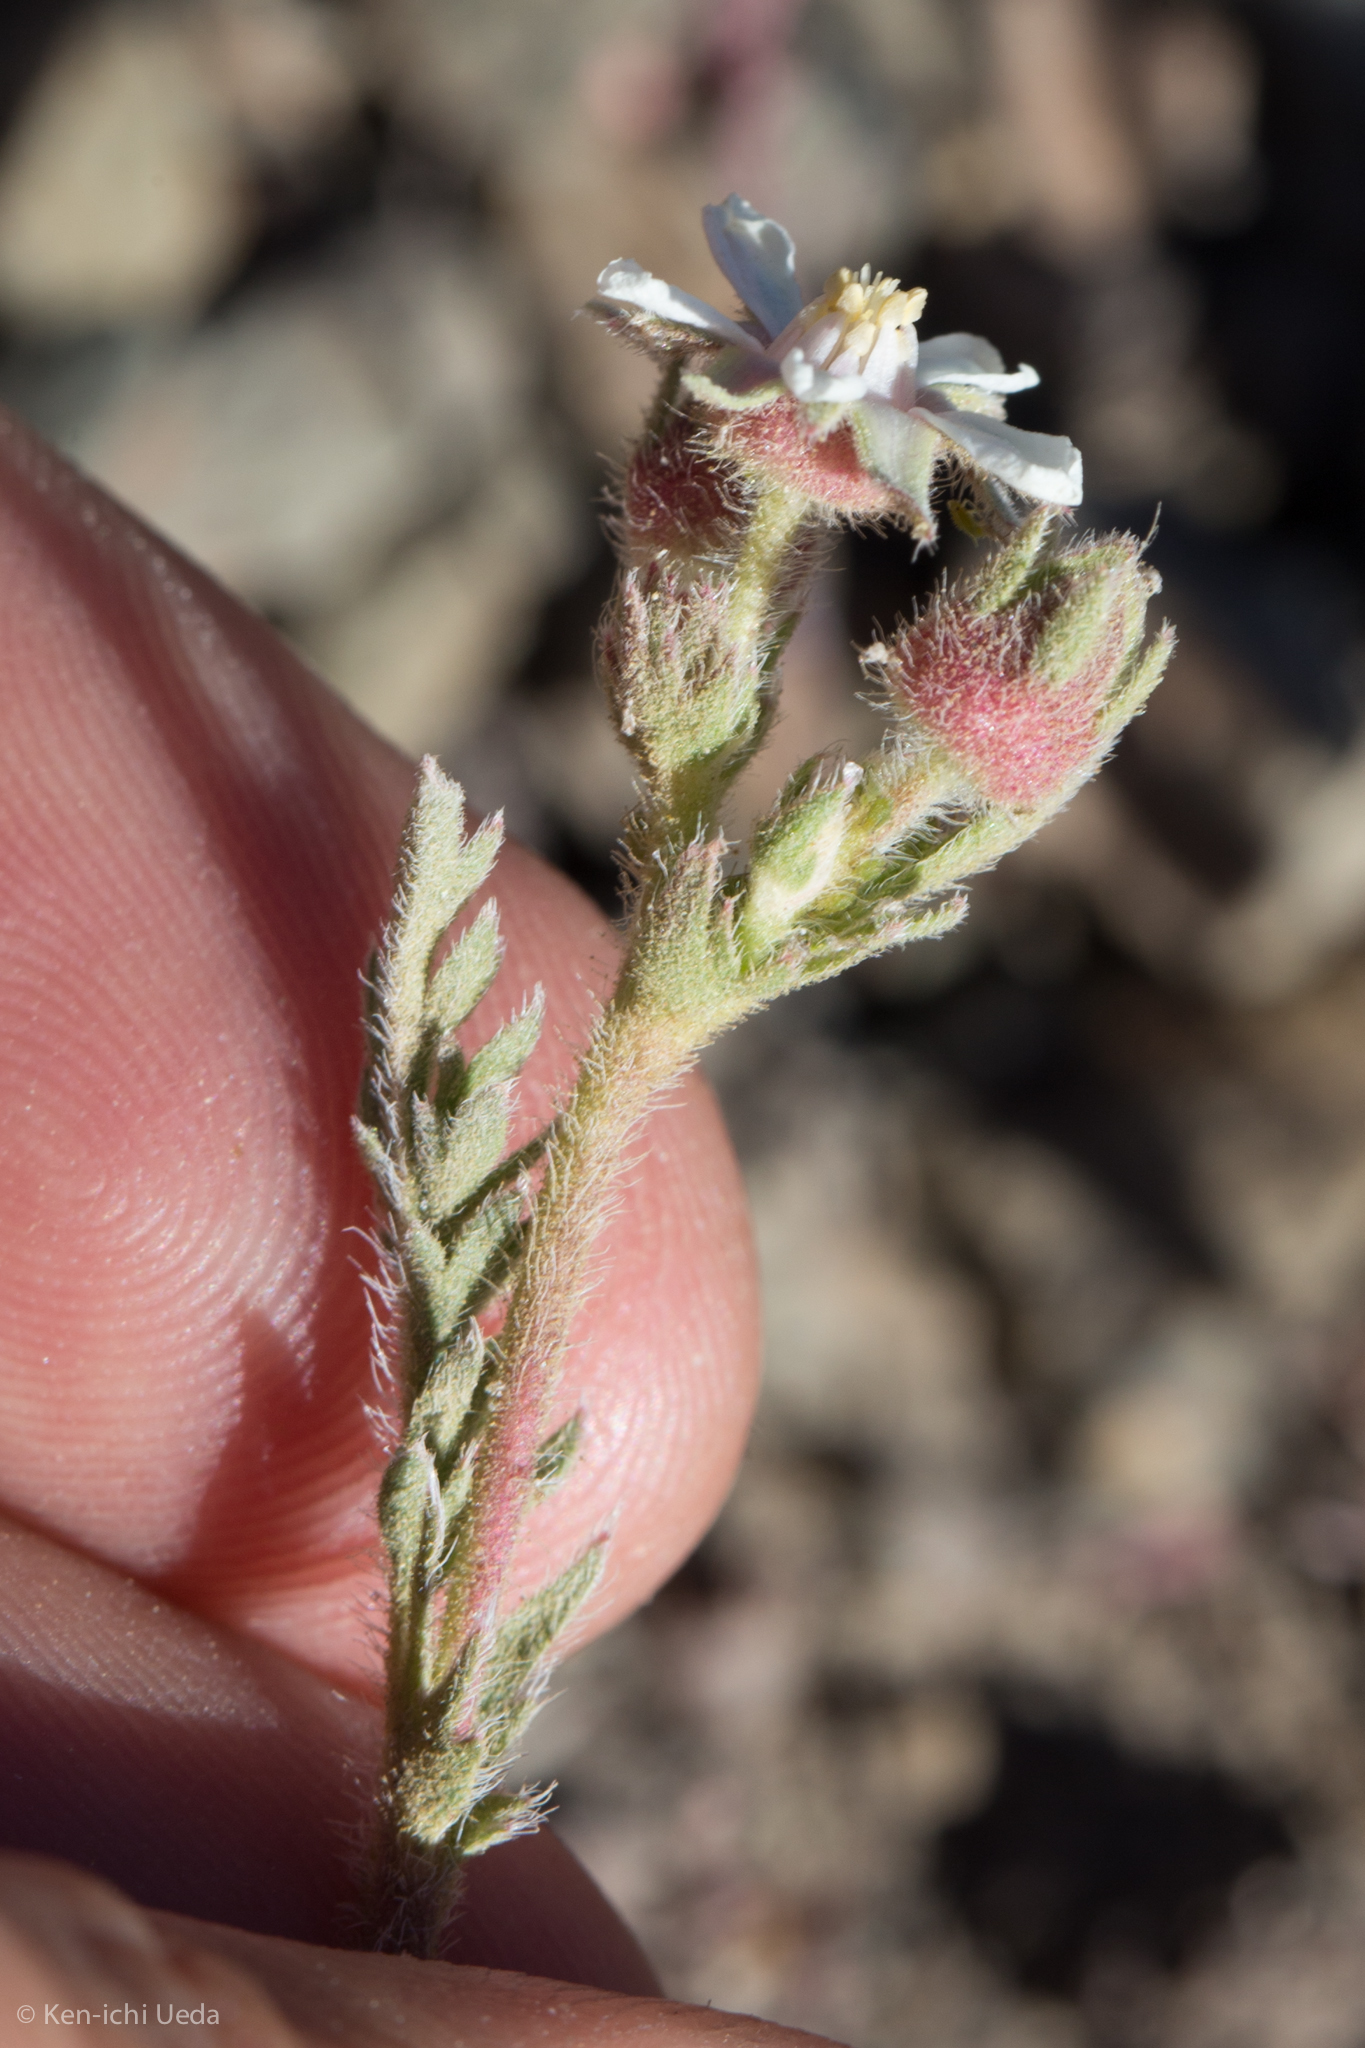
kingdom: Plantae
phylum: Tracheophyta
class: Magnoliopsida
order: Rosales
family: Rosaceae
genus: Potentilla
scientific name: Potentilla hispidula
